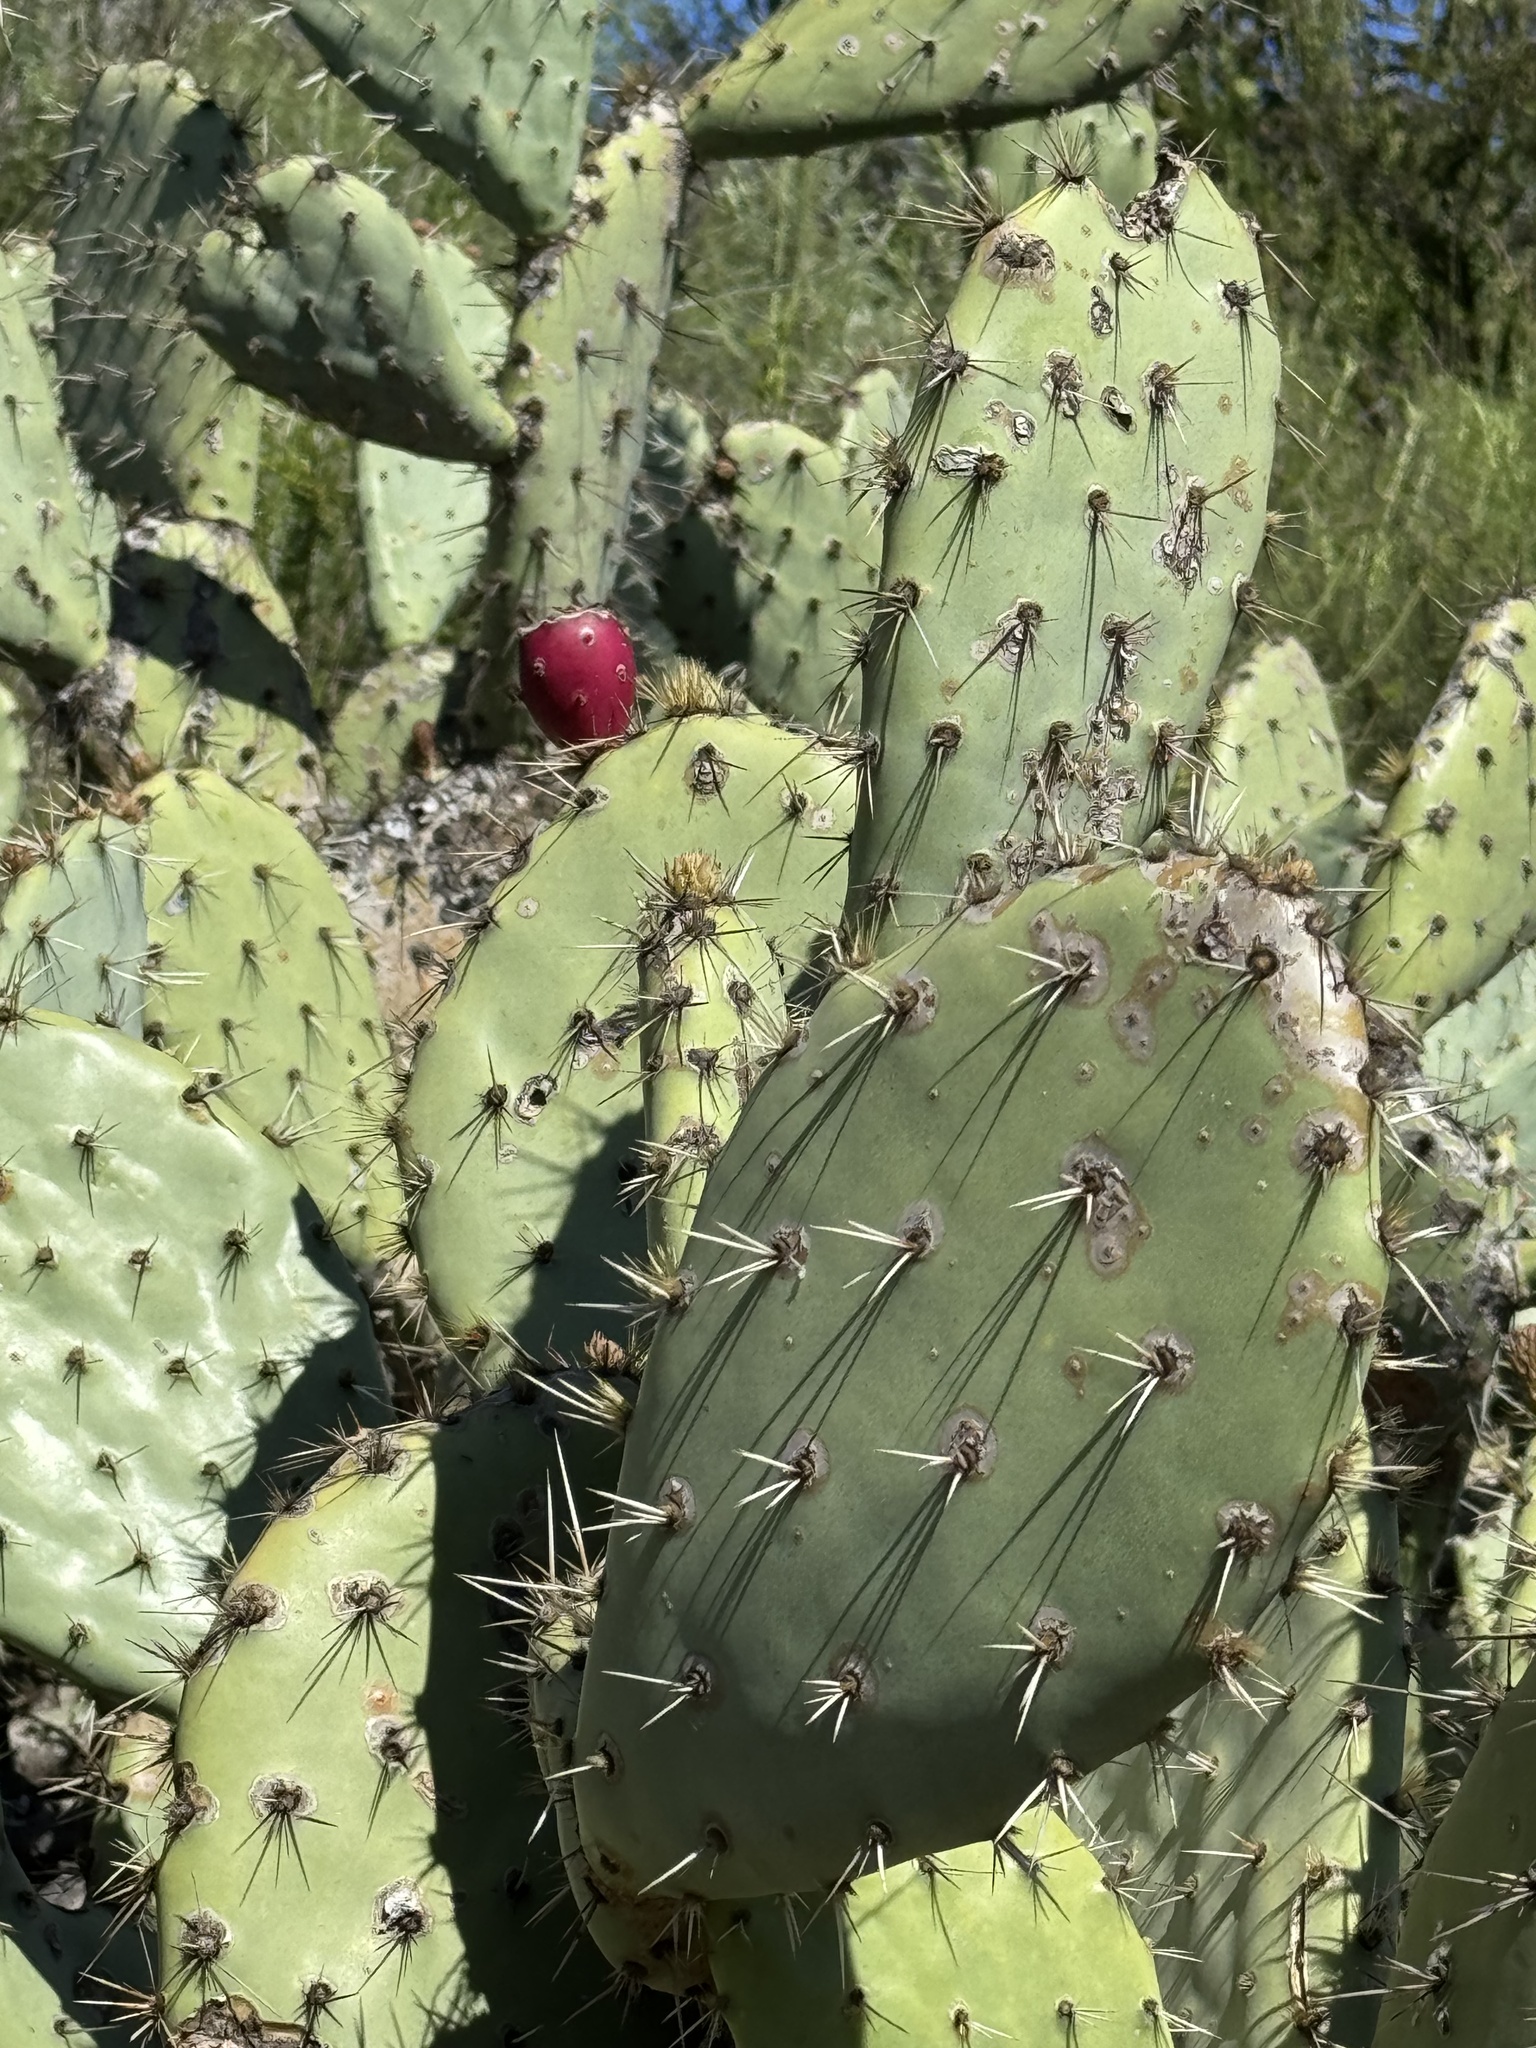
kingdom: Plantae
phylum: Tracheophyta
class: Magnoliopsida
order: Caryophyllales
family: Cactaceae
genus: Opuntia
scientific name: Opuntia oricola
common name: Chaparral prickly-pear
